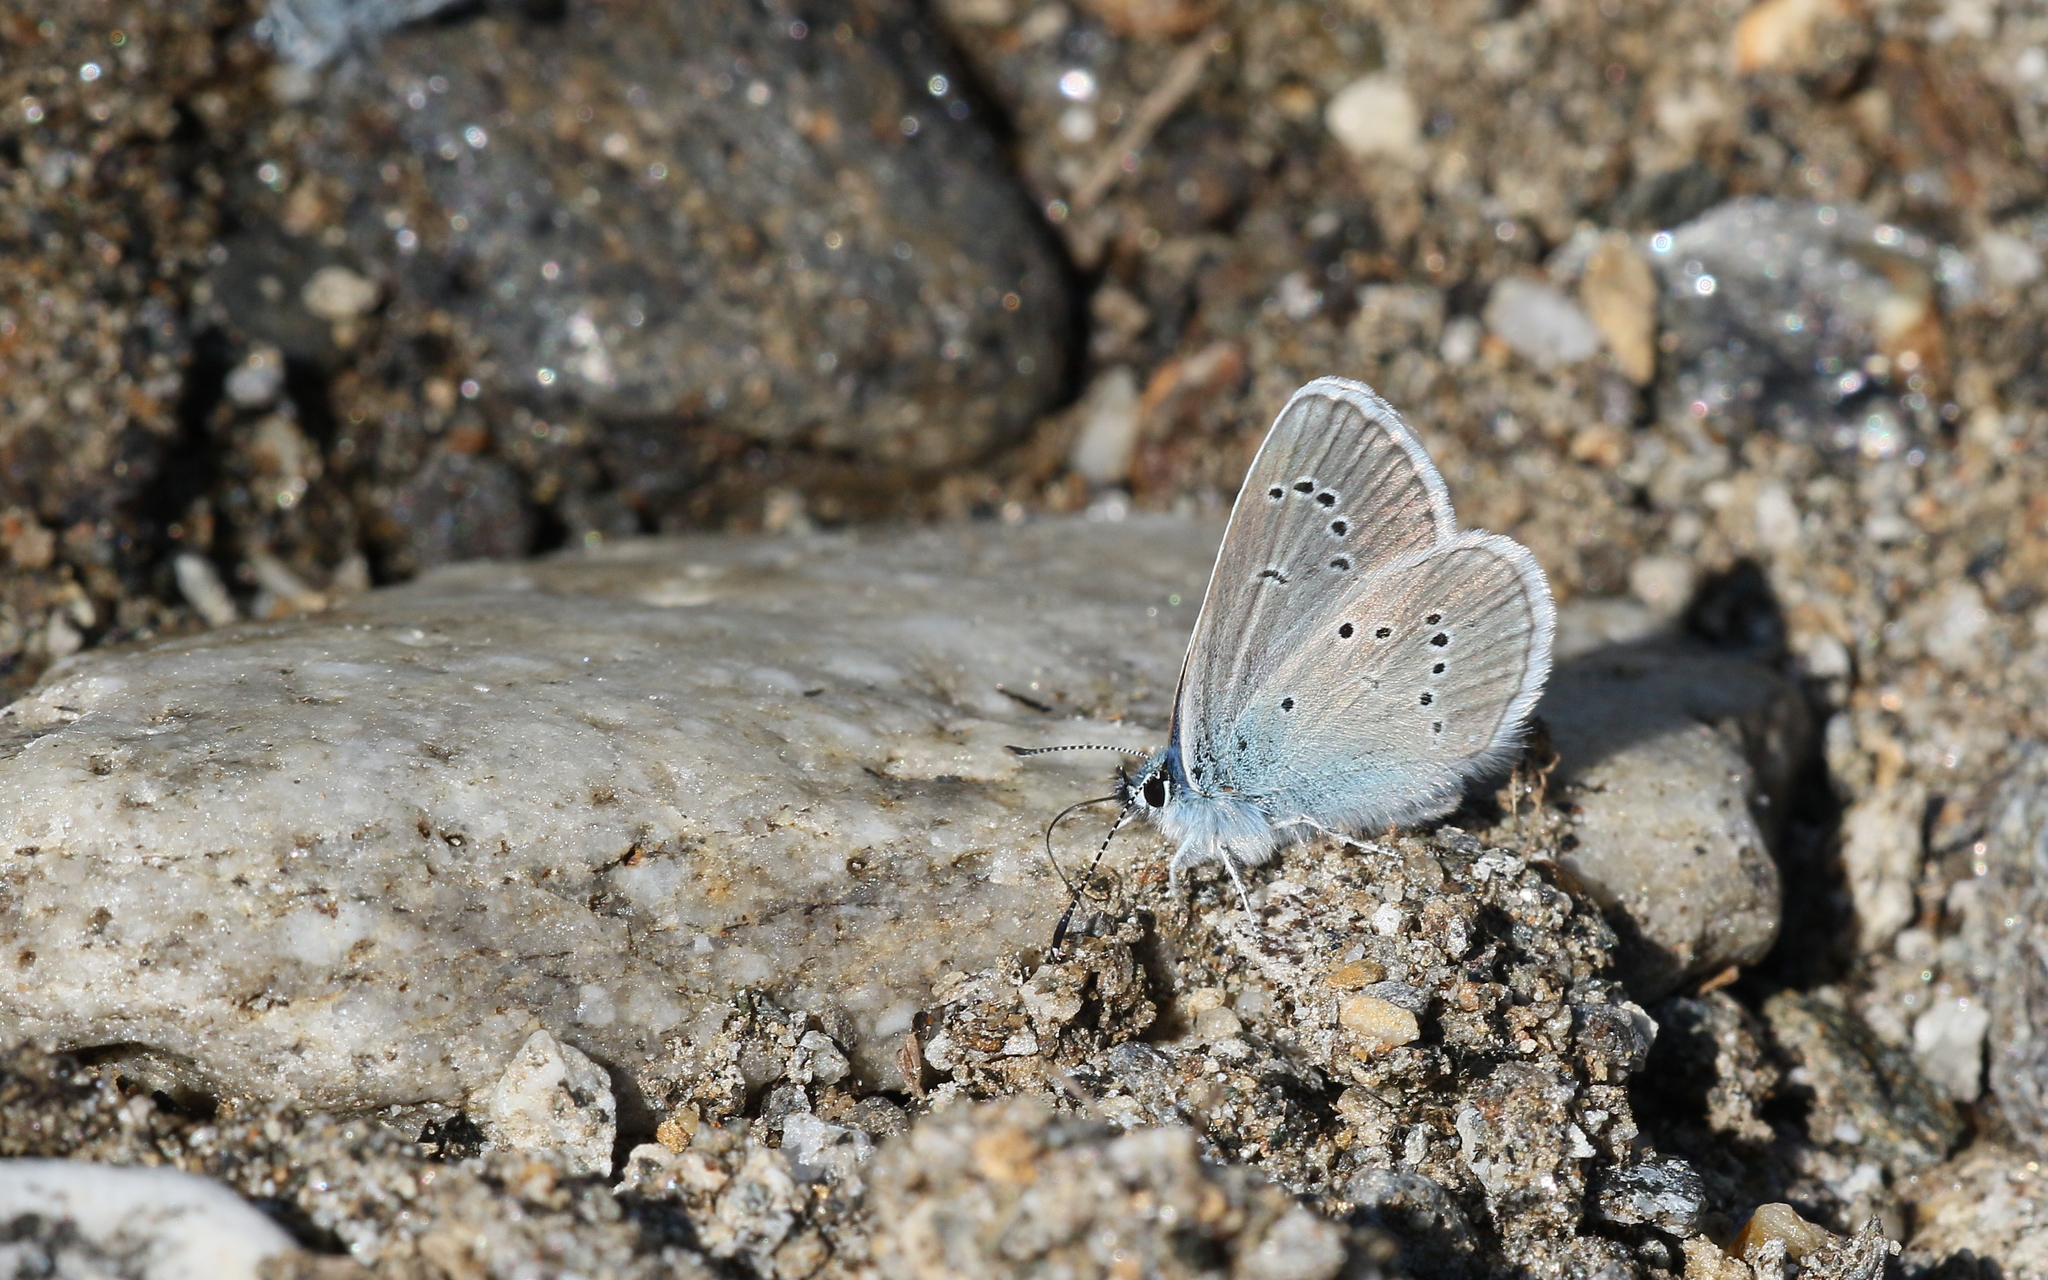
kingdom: Animalia
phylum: Arthropoda
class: Insecta
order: Lepidoptera
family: Lycaenidae
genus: Cyaniris
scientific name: Cyaniris semiargus
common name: Mazarine blue
